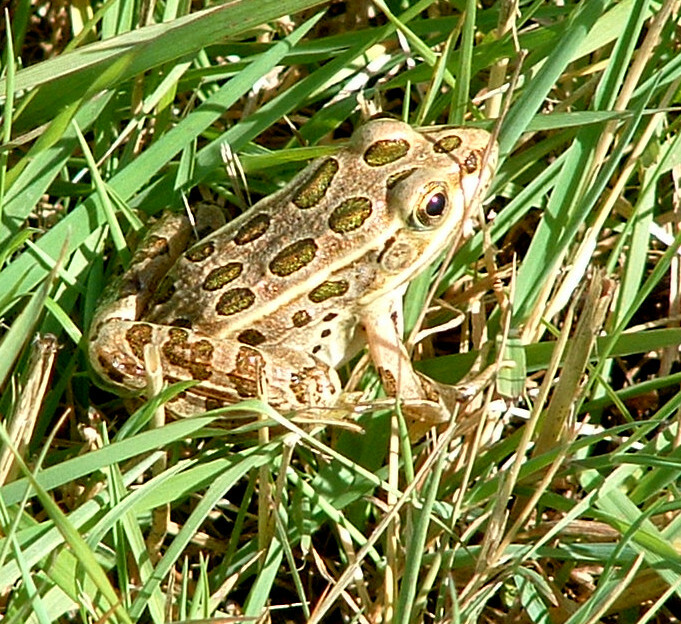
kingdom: Animalia
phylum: Chordata
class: Amphibia
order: Anura
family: Ranidae
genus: Lithobates
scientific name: Lithobates pipiens
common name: Northern leopard frog
